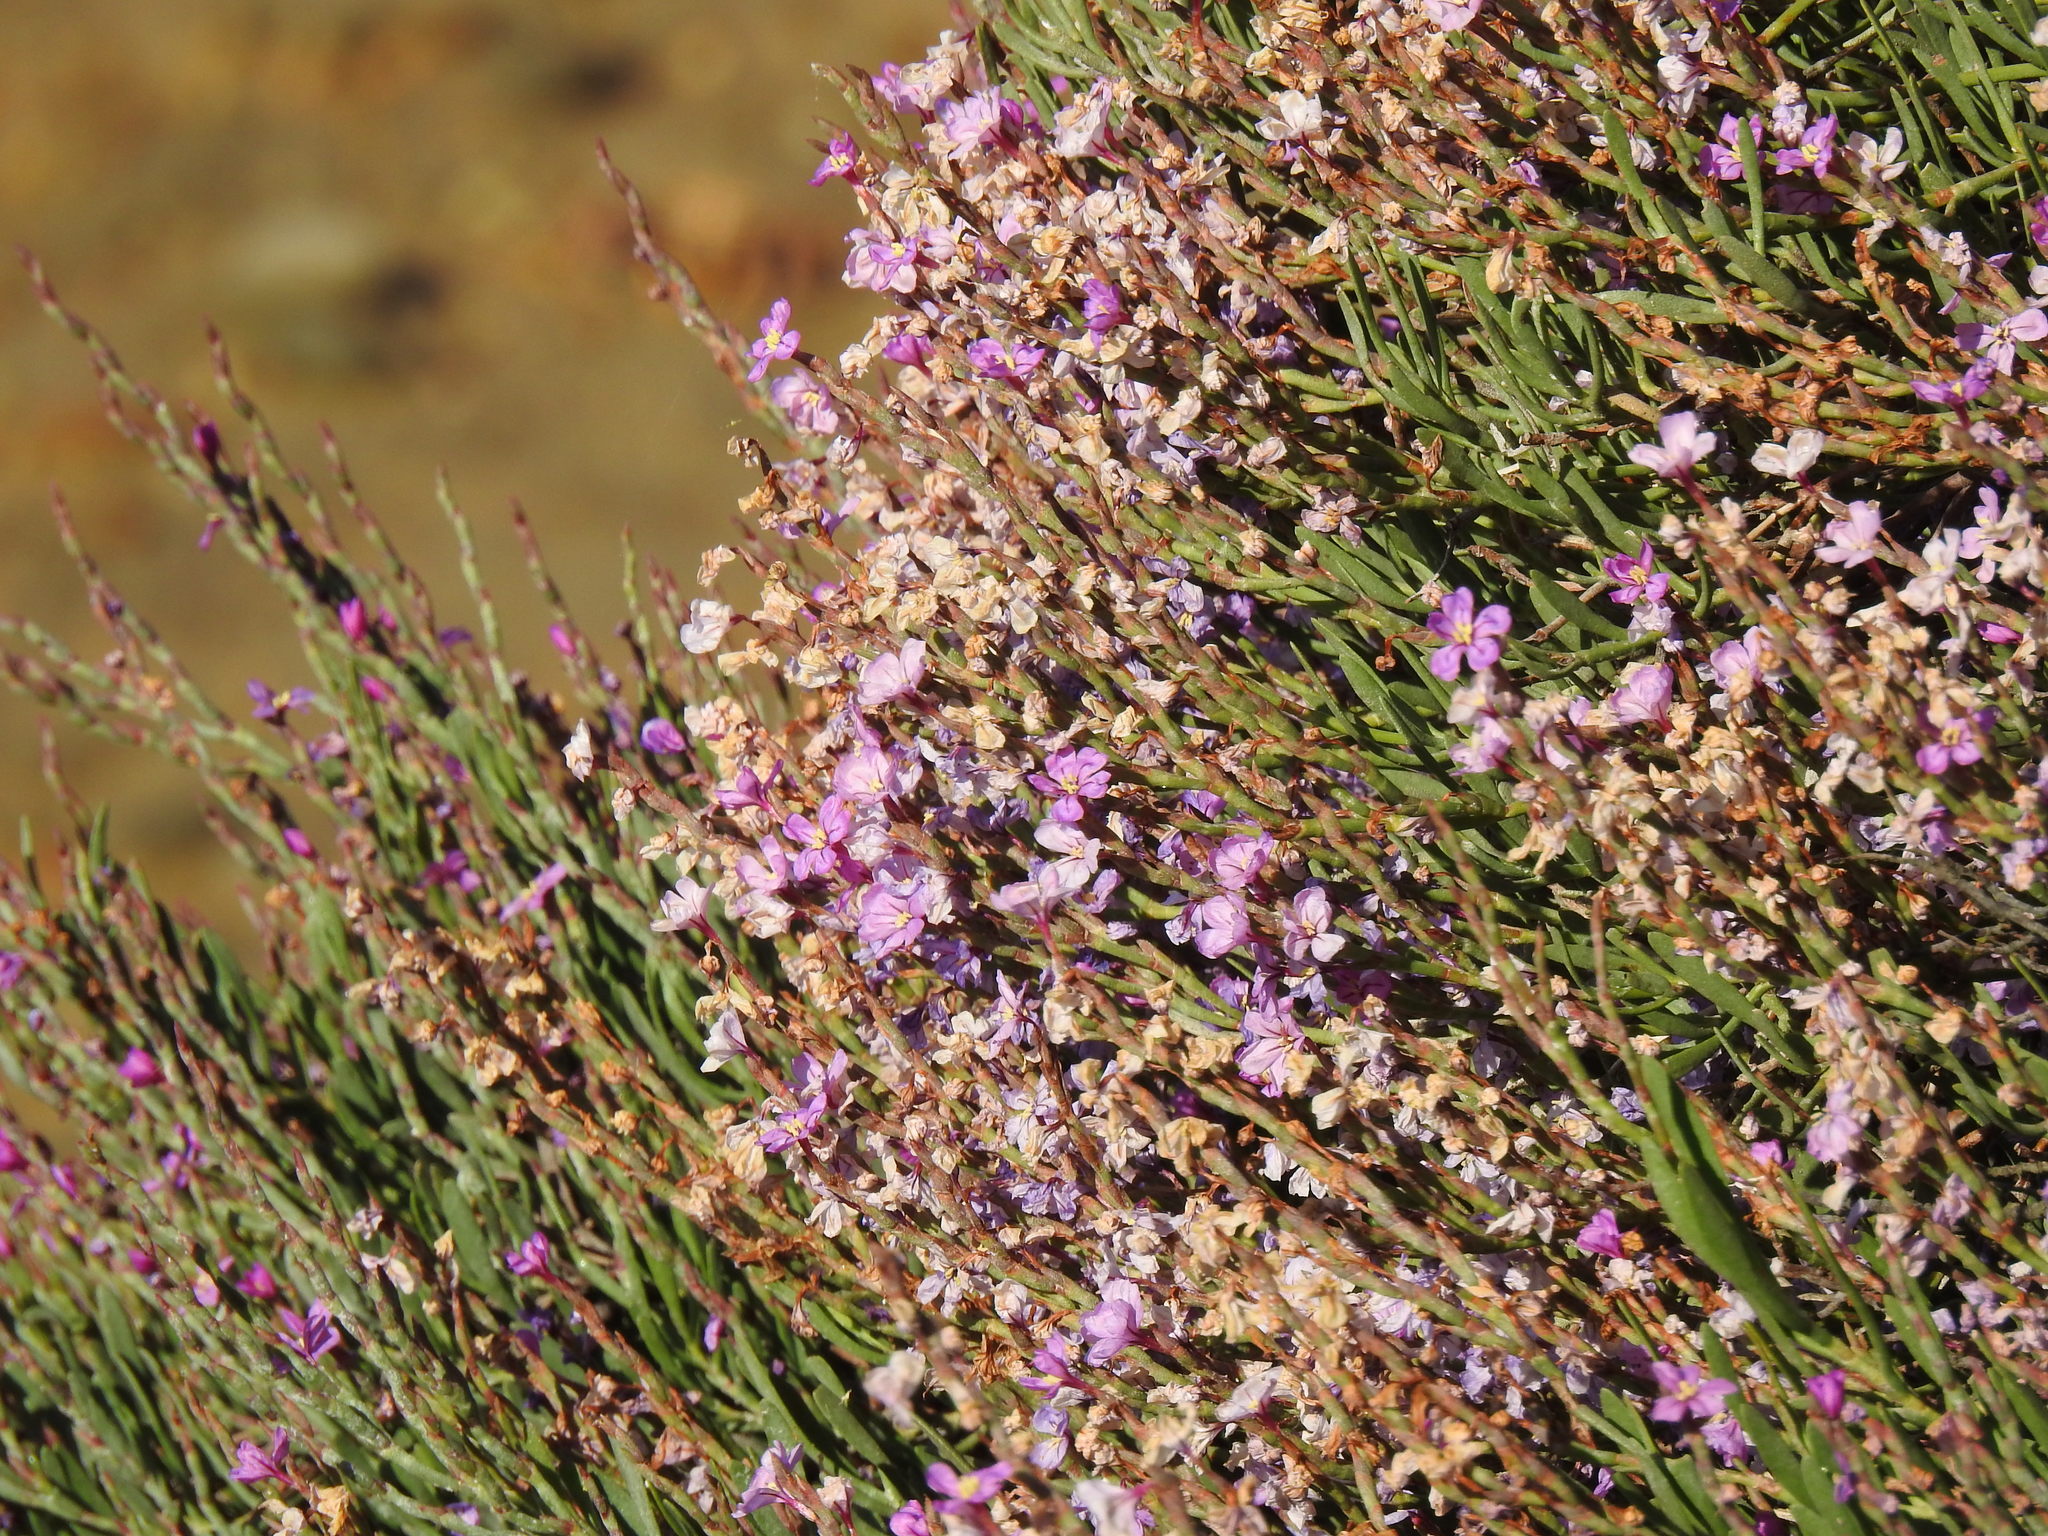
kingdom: Plantae
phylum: Tracheophyta
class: Magnoliopsida
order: Caryophyllales
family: Plumbaginaceae
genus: Limoniastrum
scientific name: Limoniastrum monopetalum
